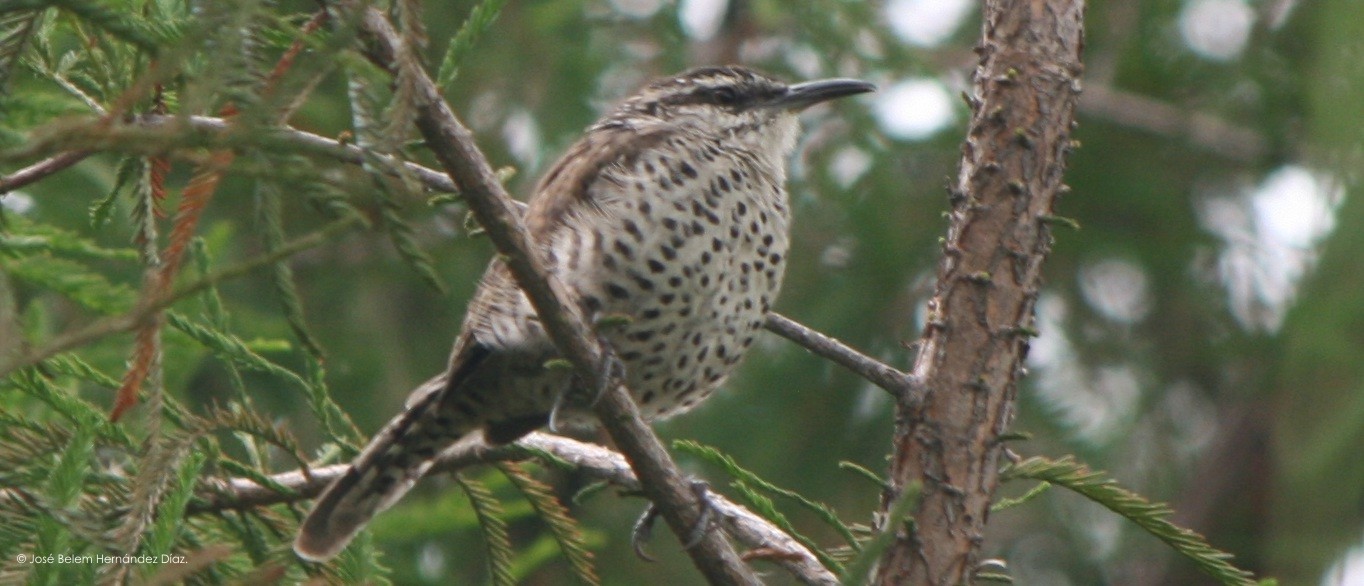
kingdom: Animalia
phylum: Chordata
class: Aves
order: Passeriformes
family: Troglodytidae
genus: Campylorhynchus
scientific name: Campylorhynchus jocosus
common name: Boucard's wren
